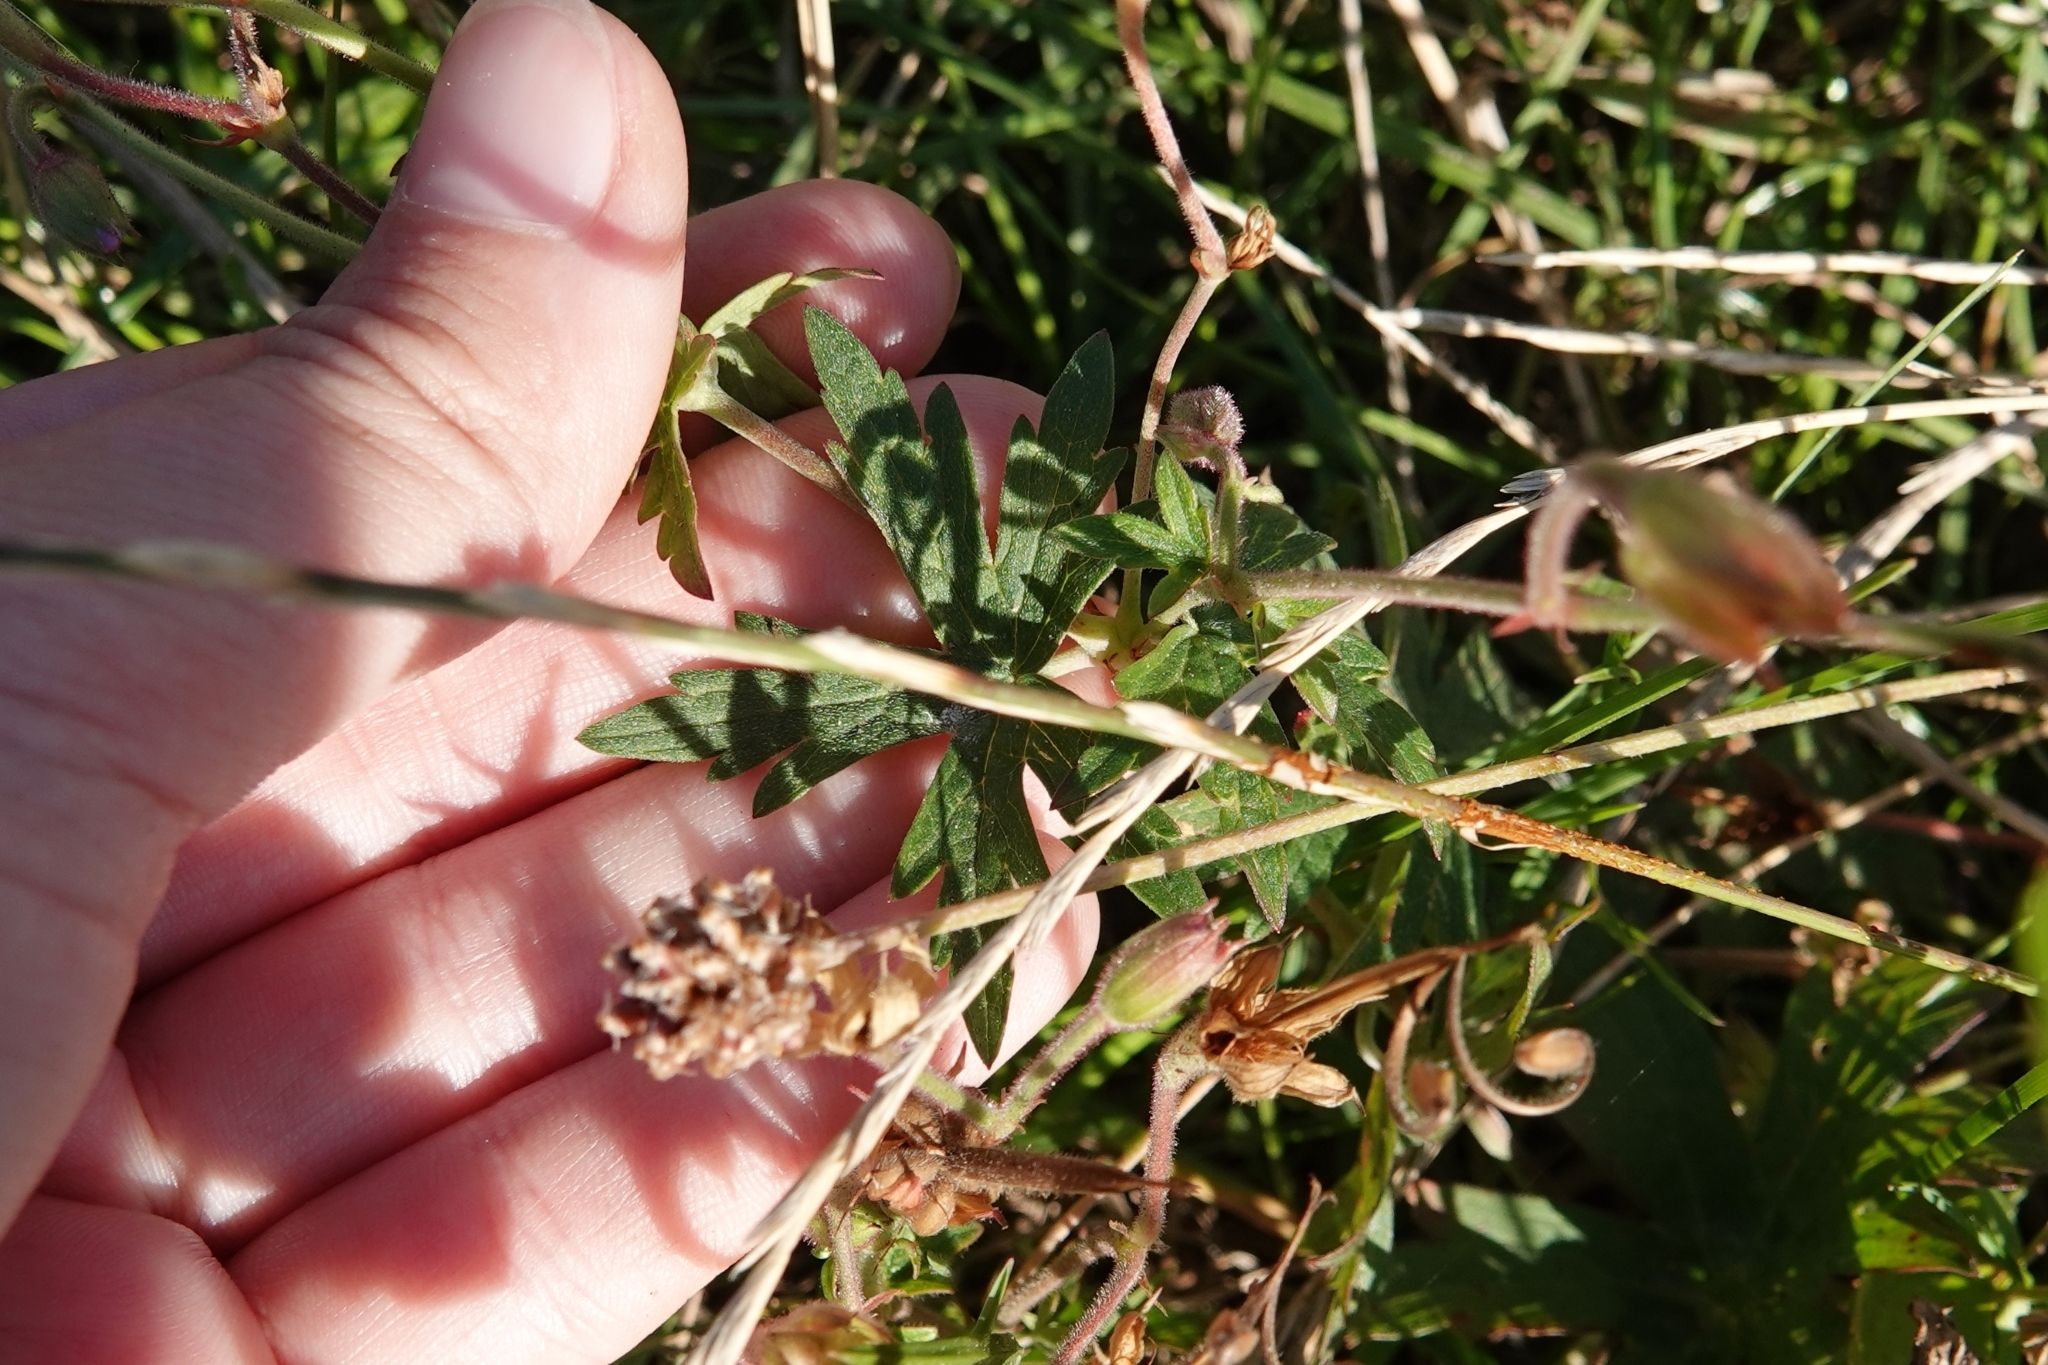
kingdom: Plantae
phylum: Tracheophyta
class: Magnoliopsida
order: Geraniales
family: Geraniaceae
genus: Geranium
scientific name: Geranium collinum
